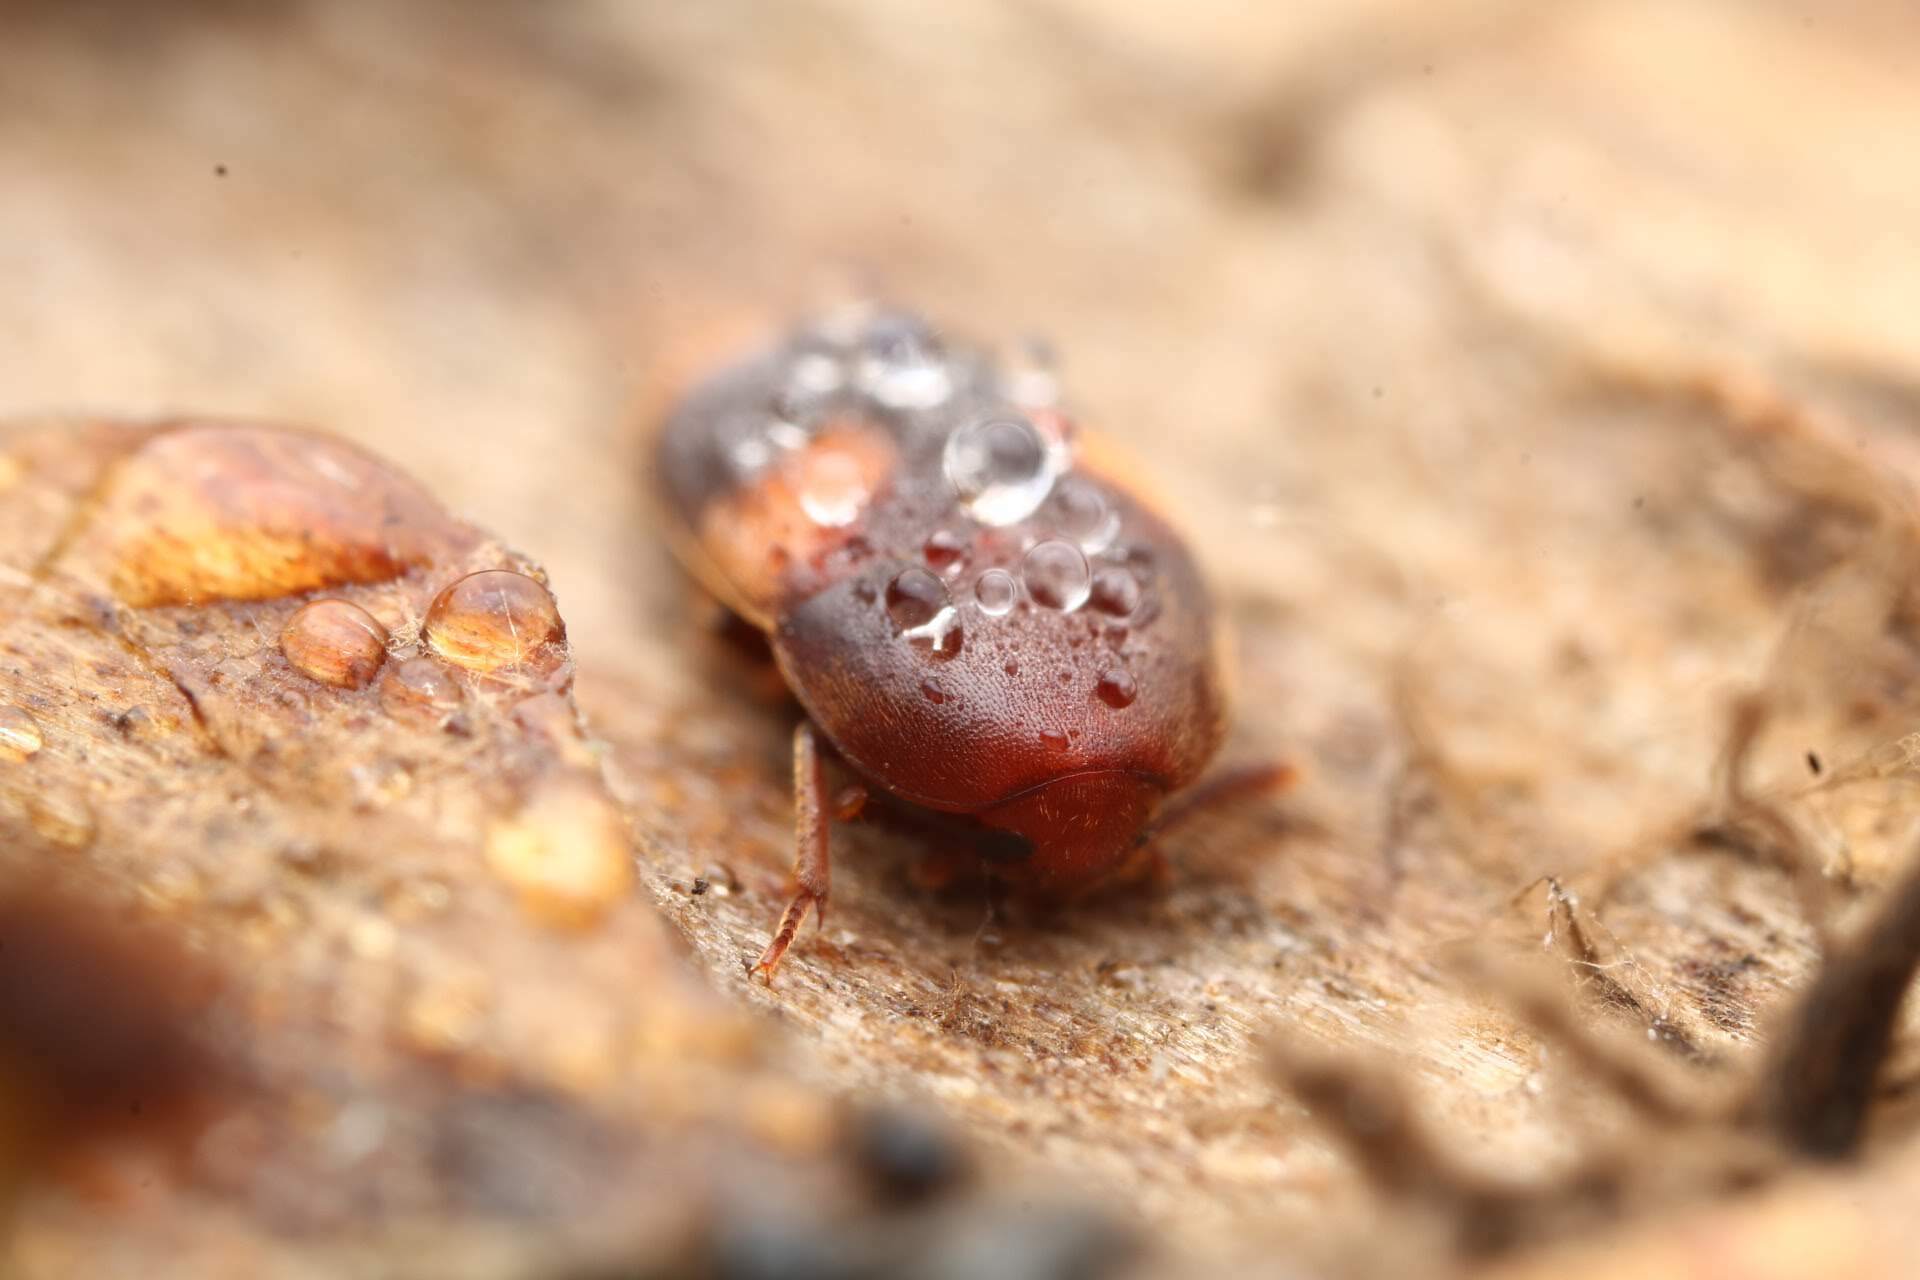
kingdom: Animalia
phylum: Arthropoda
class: Insecta
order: Coleoptera
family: Tetratomidae
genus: Holostrophus
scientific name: Holostrophus bifasciatus
